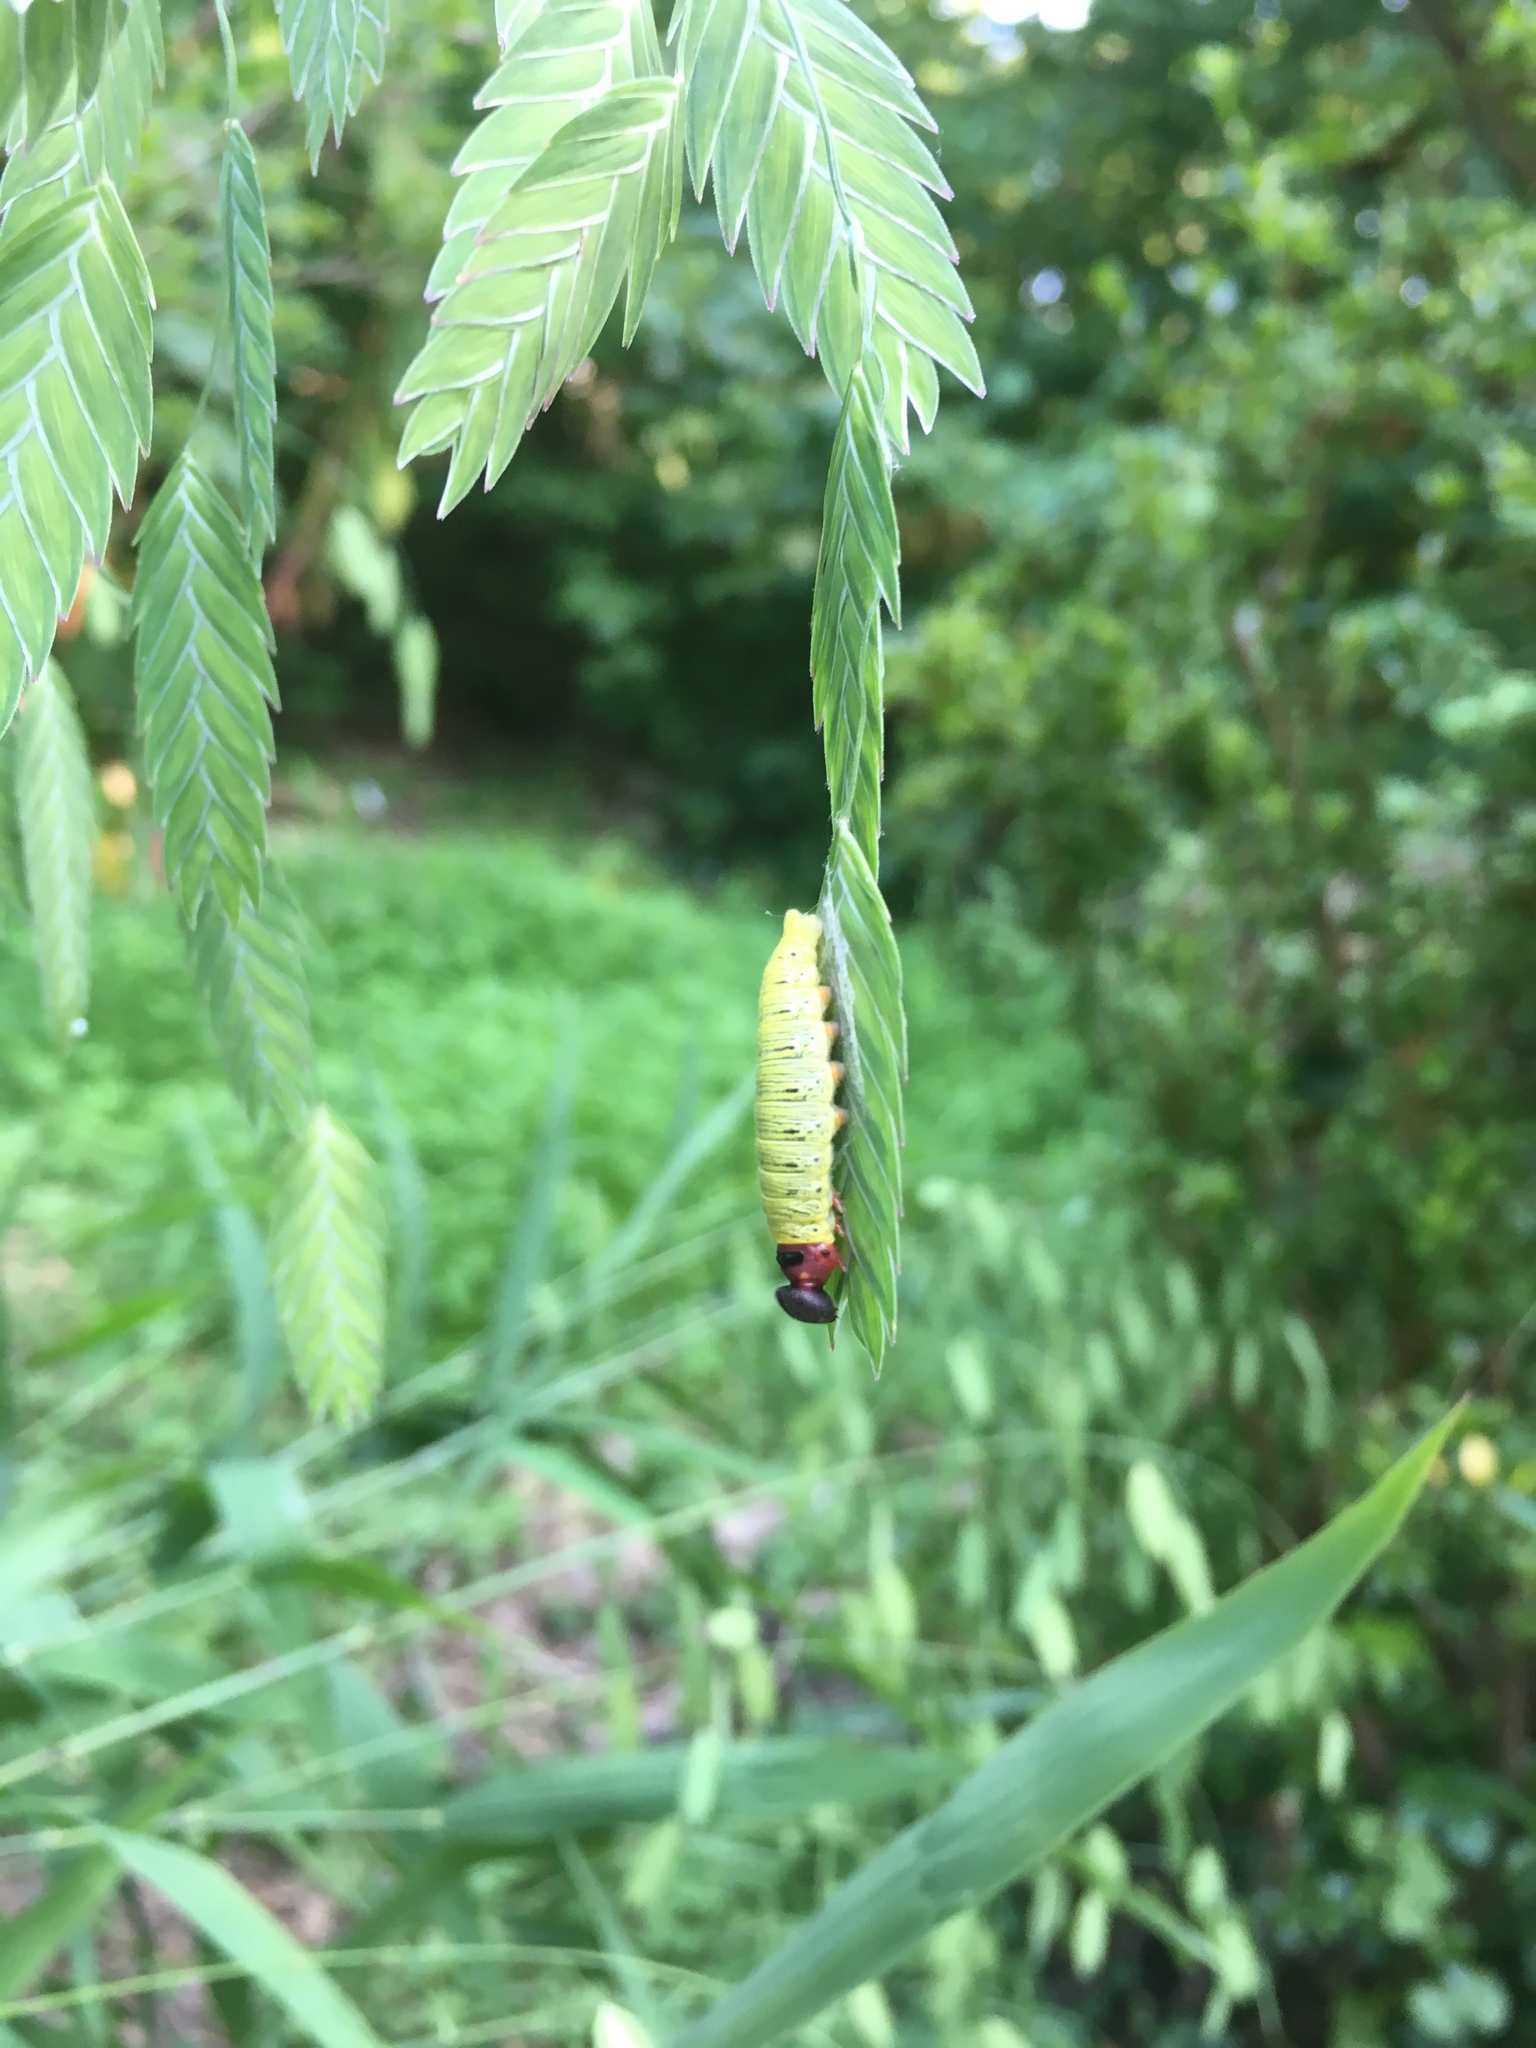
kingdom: Animalia
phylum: Arthropoda
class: Insecta
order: Lepidoptera
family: Hesperiidae
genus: Epargyreus
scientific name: Epargyreus clarus
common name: Silver-spotted skipper
